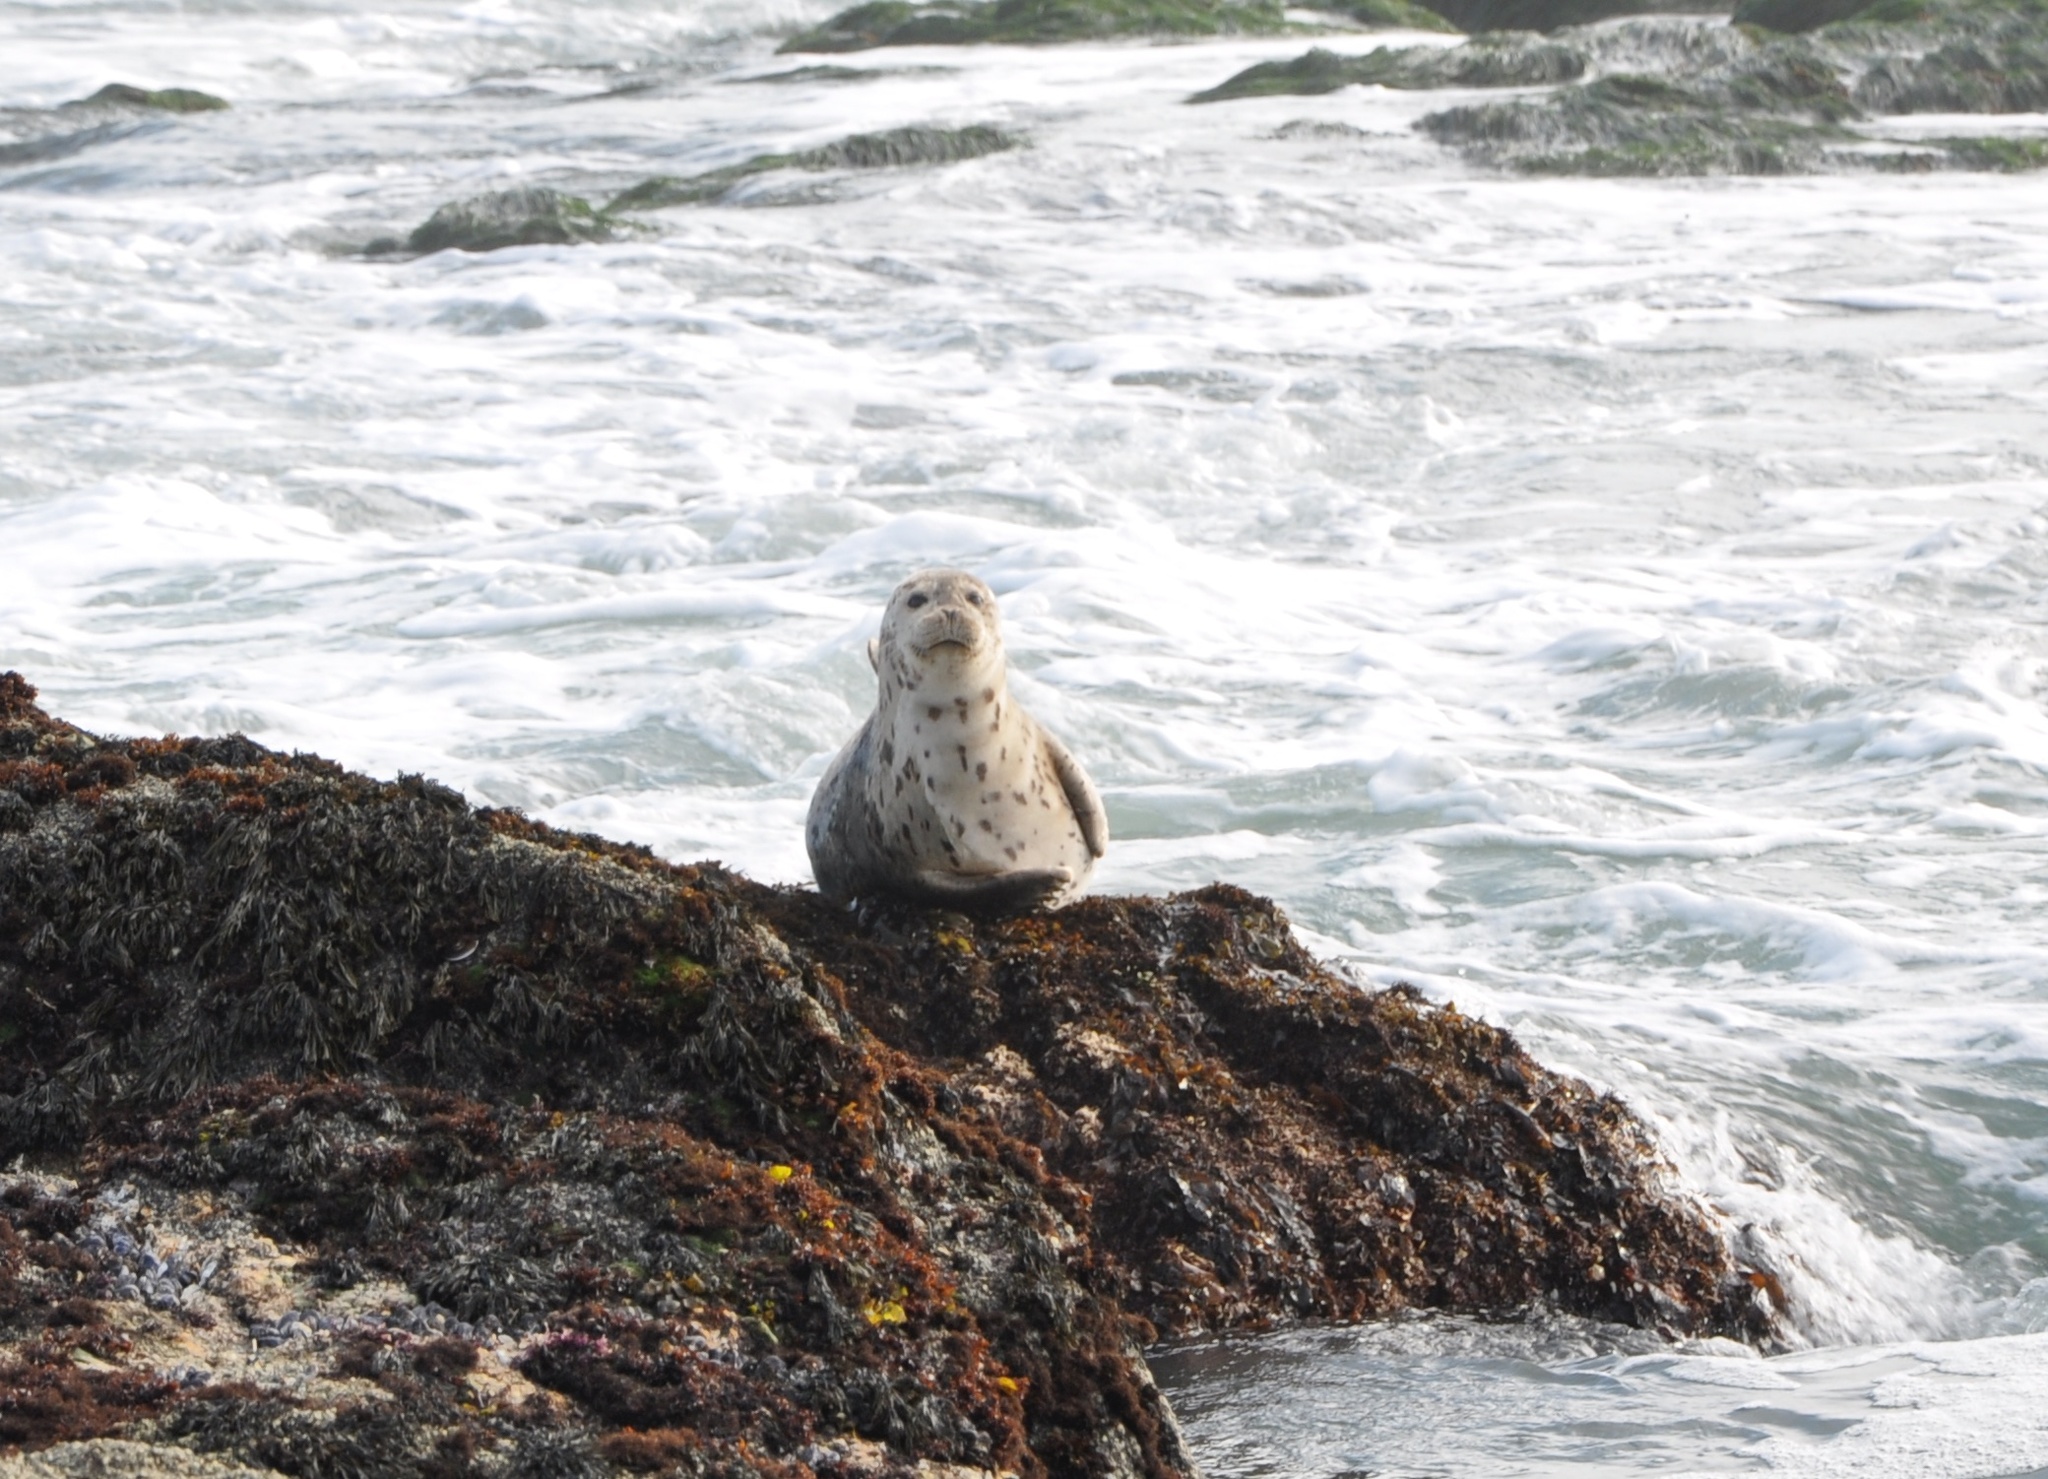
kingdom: Animalia
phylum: Chordata
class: Mammalia
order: Carnivora
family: Phocidae
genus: Phoca
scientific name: Phoca vitulina
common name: Harbor seal
